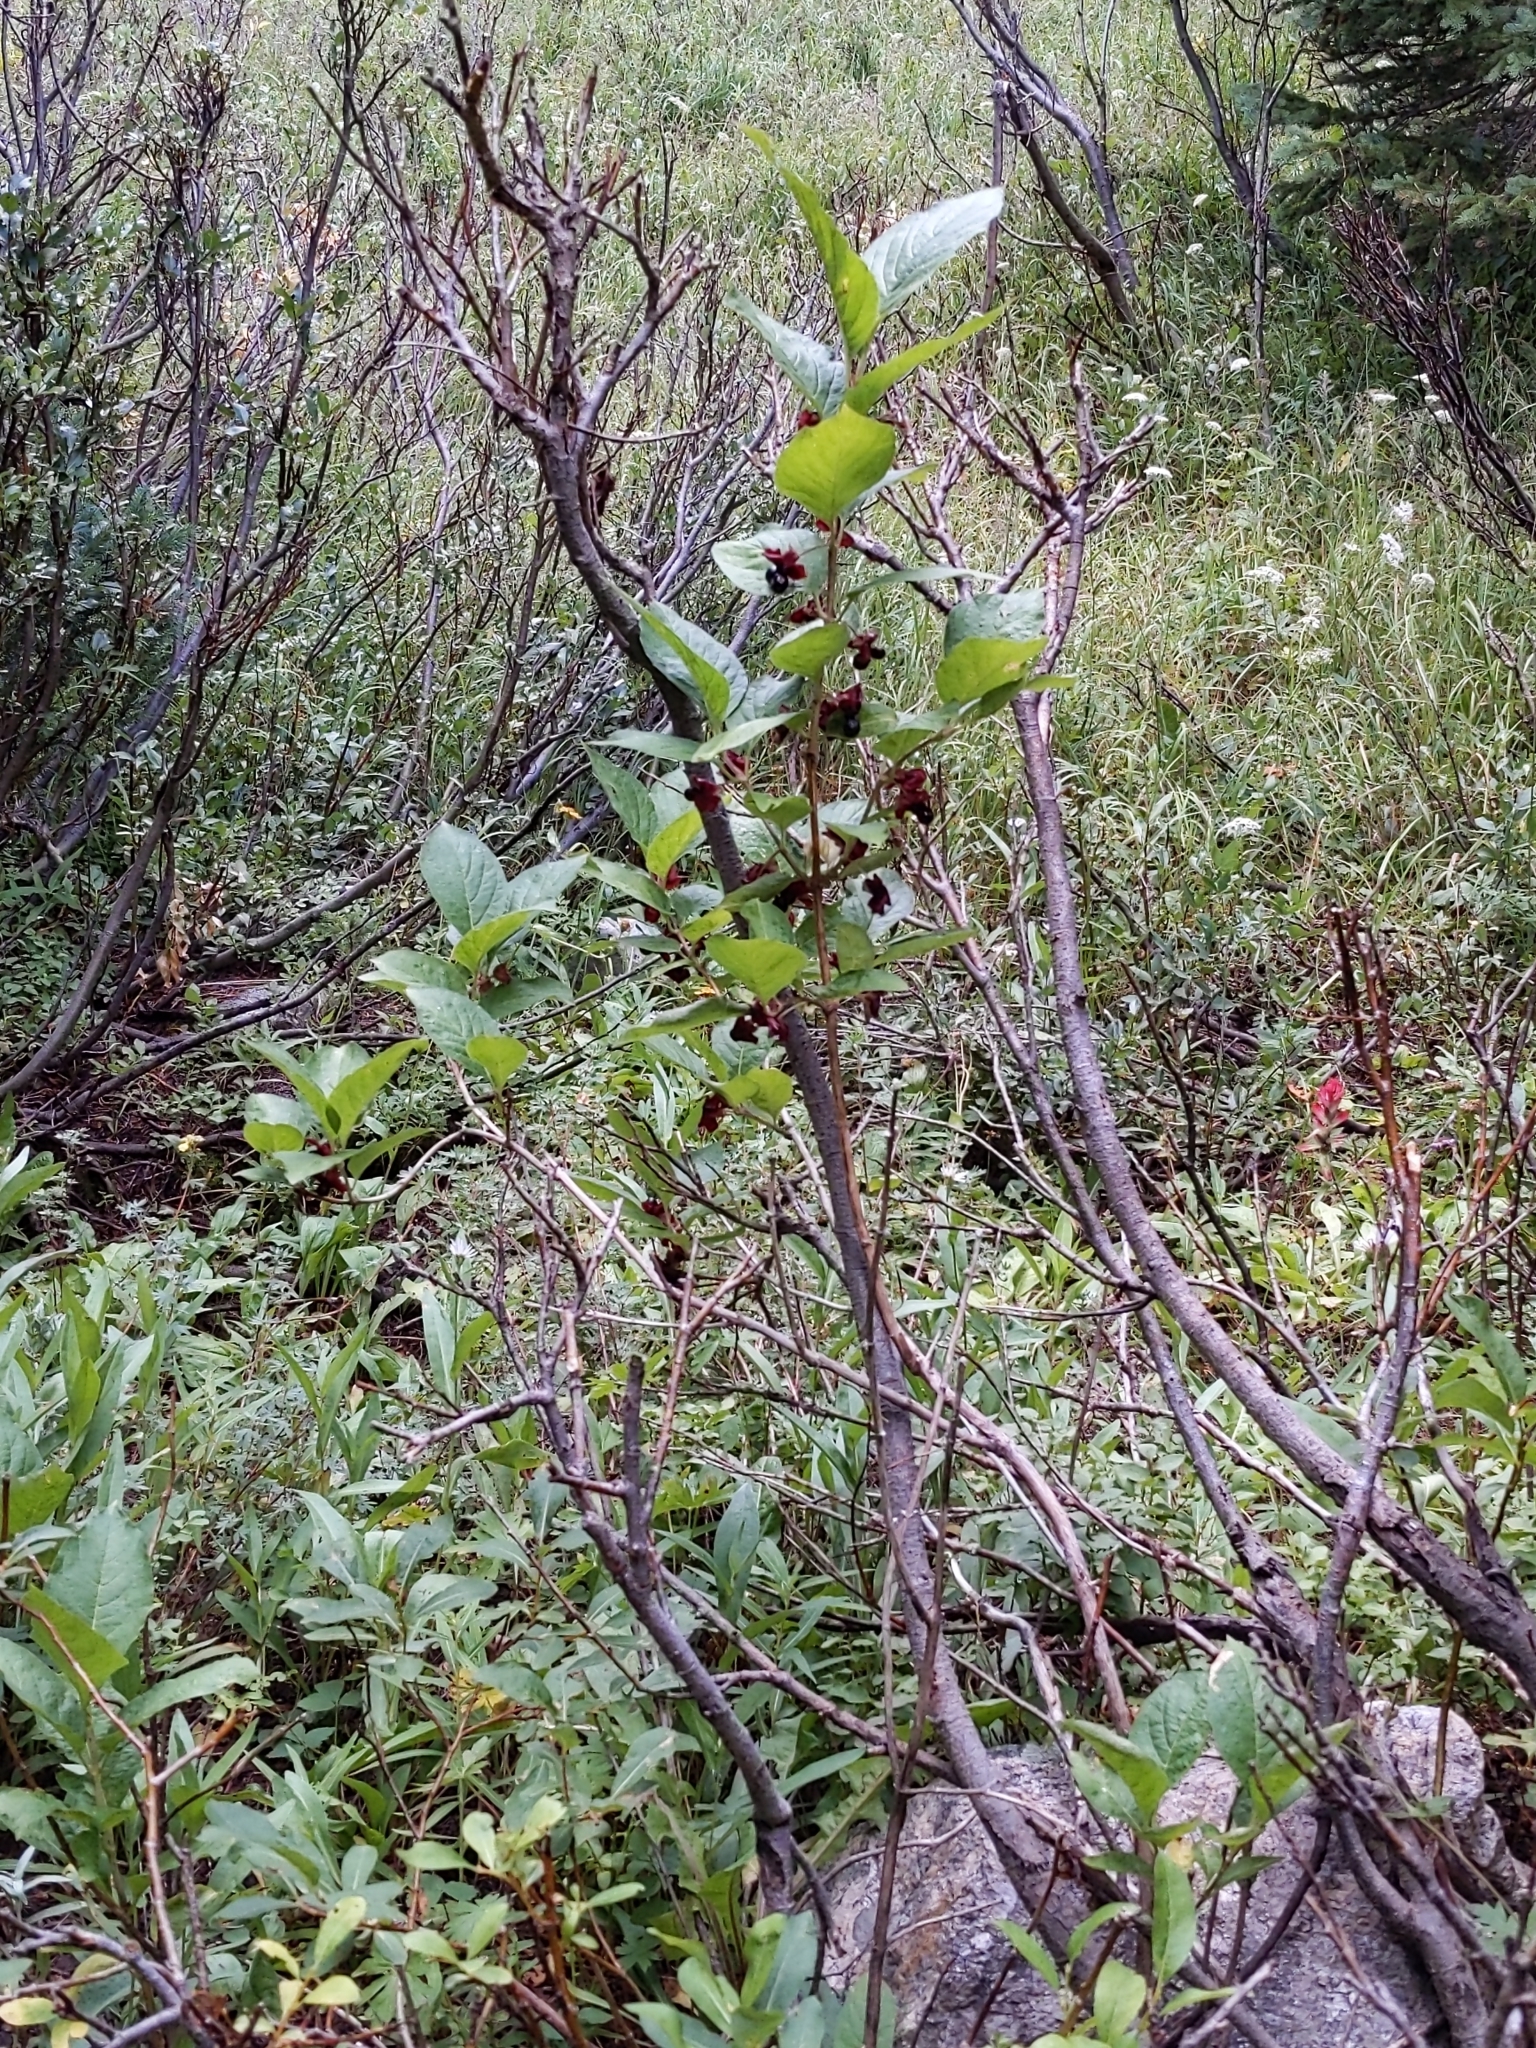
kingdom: Plantae
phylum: Tracheophyta
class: Magnoliopsida
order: Dipsacales
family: Caprifoliaceae
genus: Lonicera
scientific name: Lonicera involucrata
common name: Californian honeysuckle
